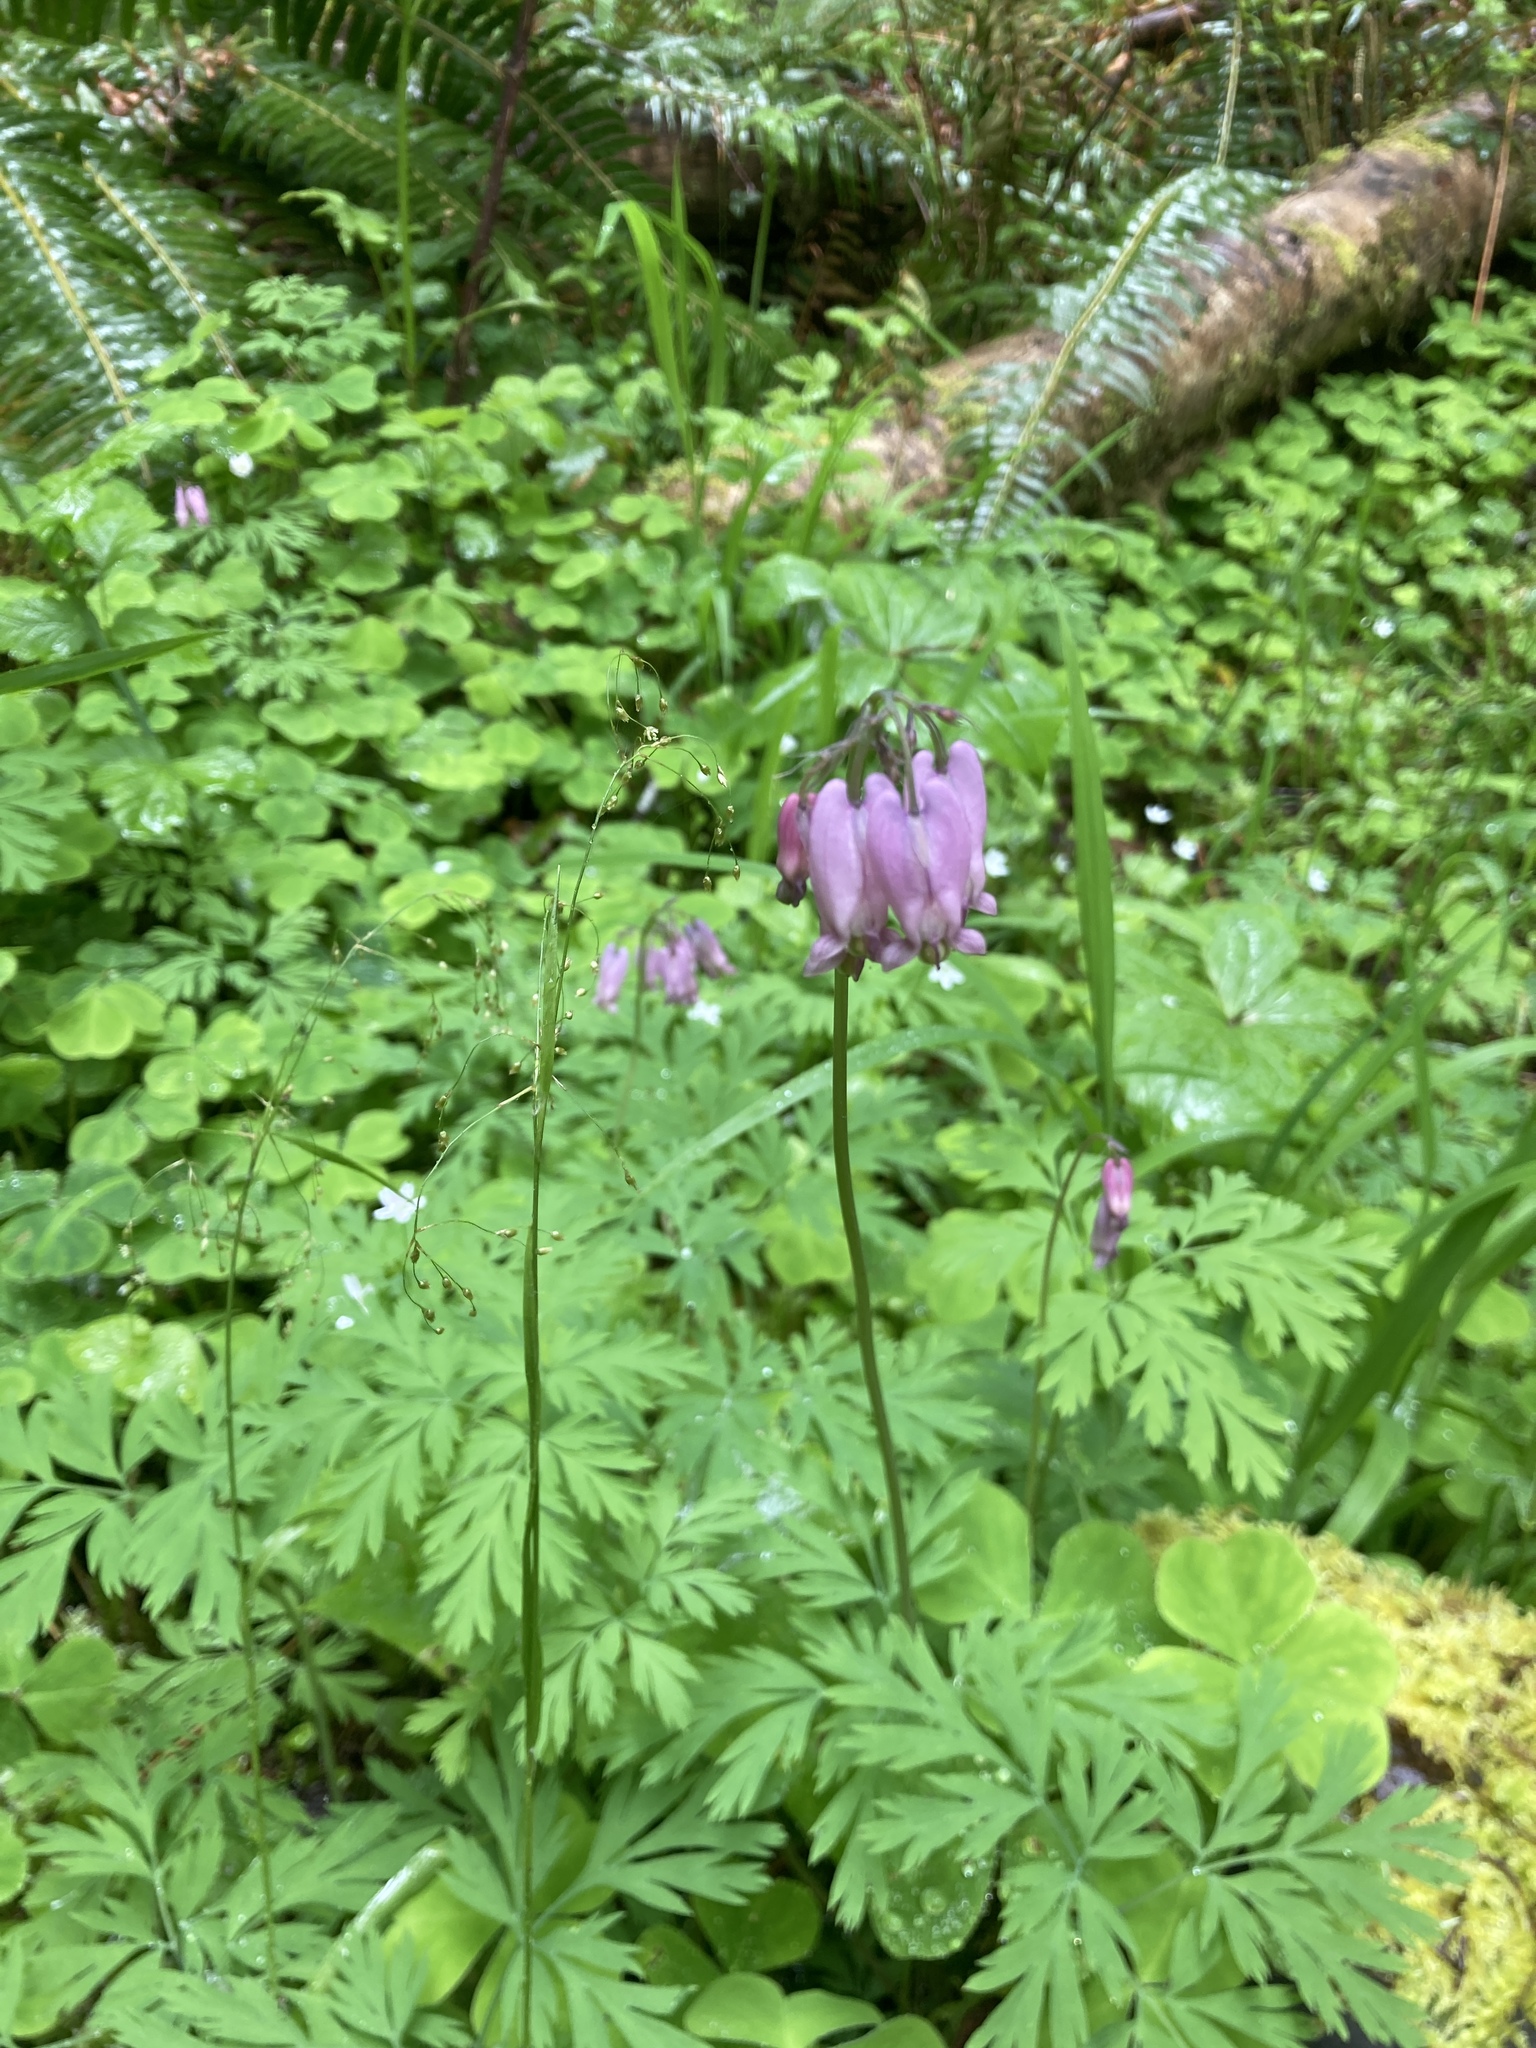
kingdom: Plantae
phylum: Tracheophyta
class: Magnoliopsida
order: Ranunculales
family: Papaveraceae
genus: Dicentra
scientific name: Dicentra formosa
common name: Bleeding-heart
